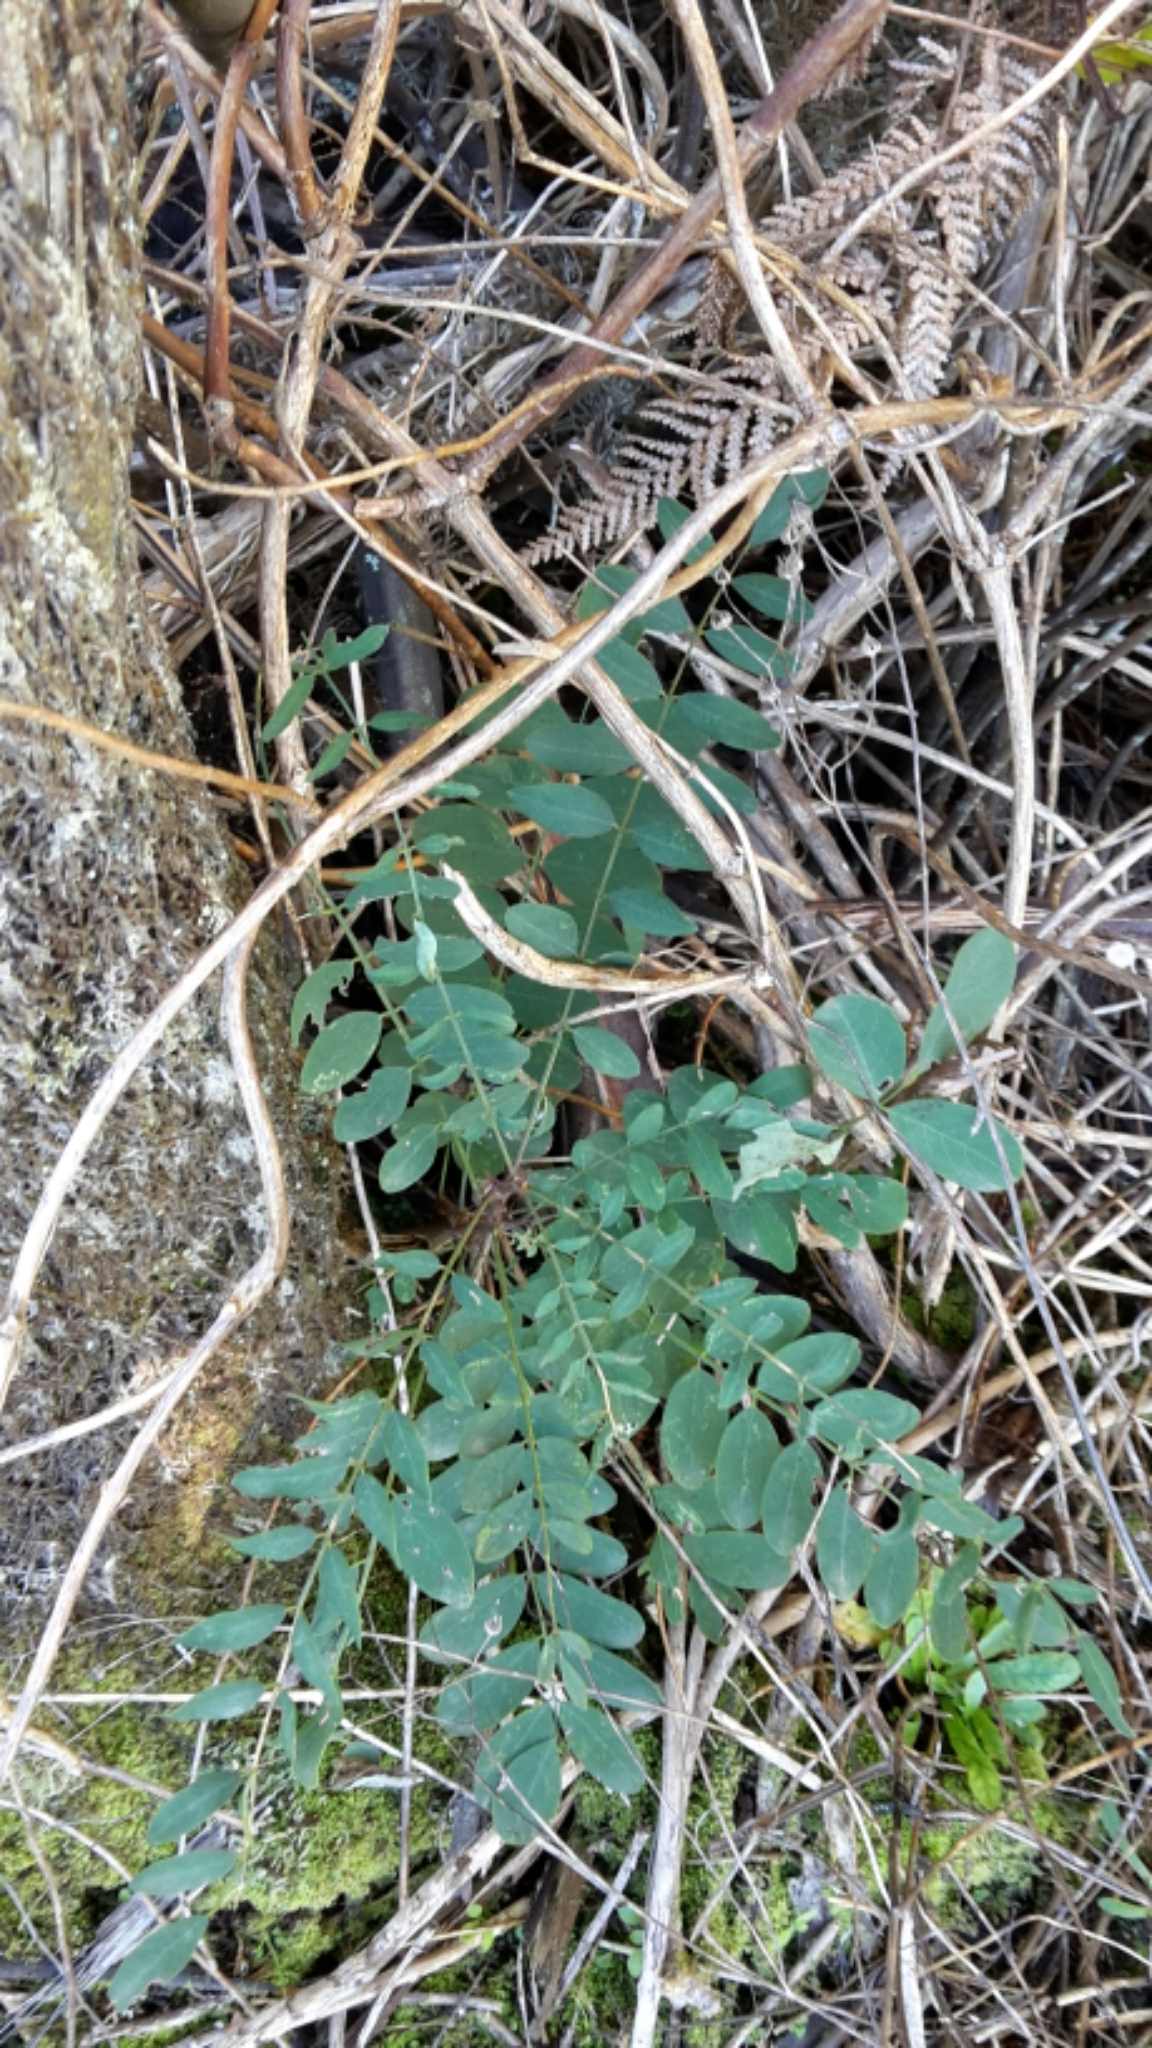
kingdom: Plantae
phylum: Tracheophyta
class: Magnoliopsida
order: Fabales
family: Fabaceae
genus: Robinia
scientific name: Robinia pseudoacacia
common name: Black locust
